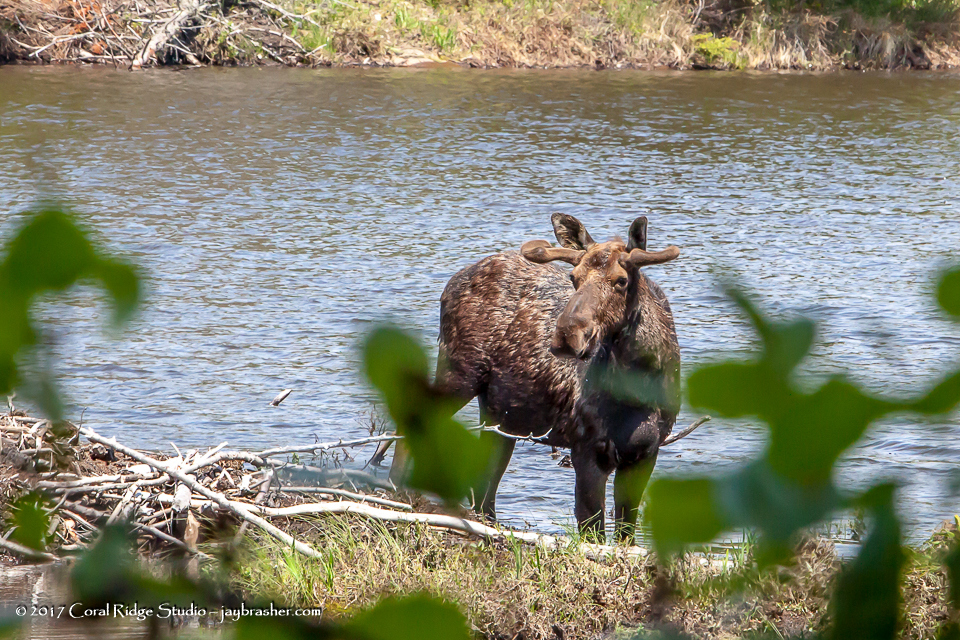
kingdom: Animalia
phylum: Chordata
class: Mammalia
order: Artiodactyla
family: Cervidae
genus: Alces
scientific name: Alces alces
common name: Moose
